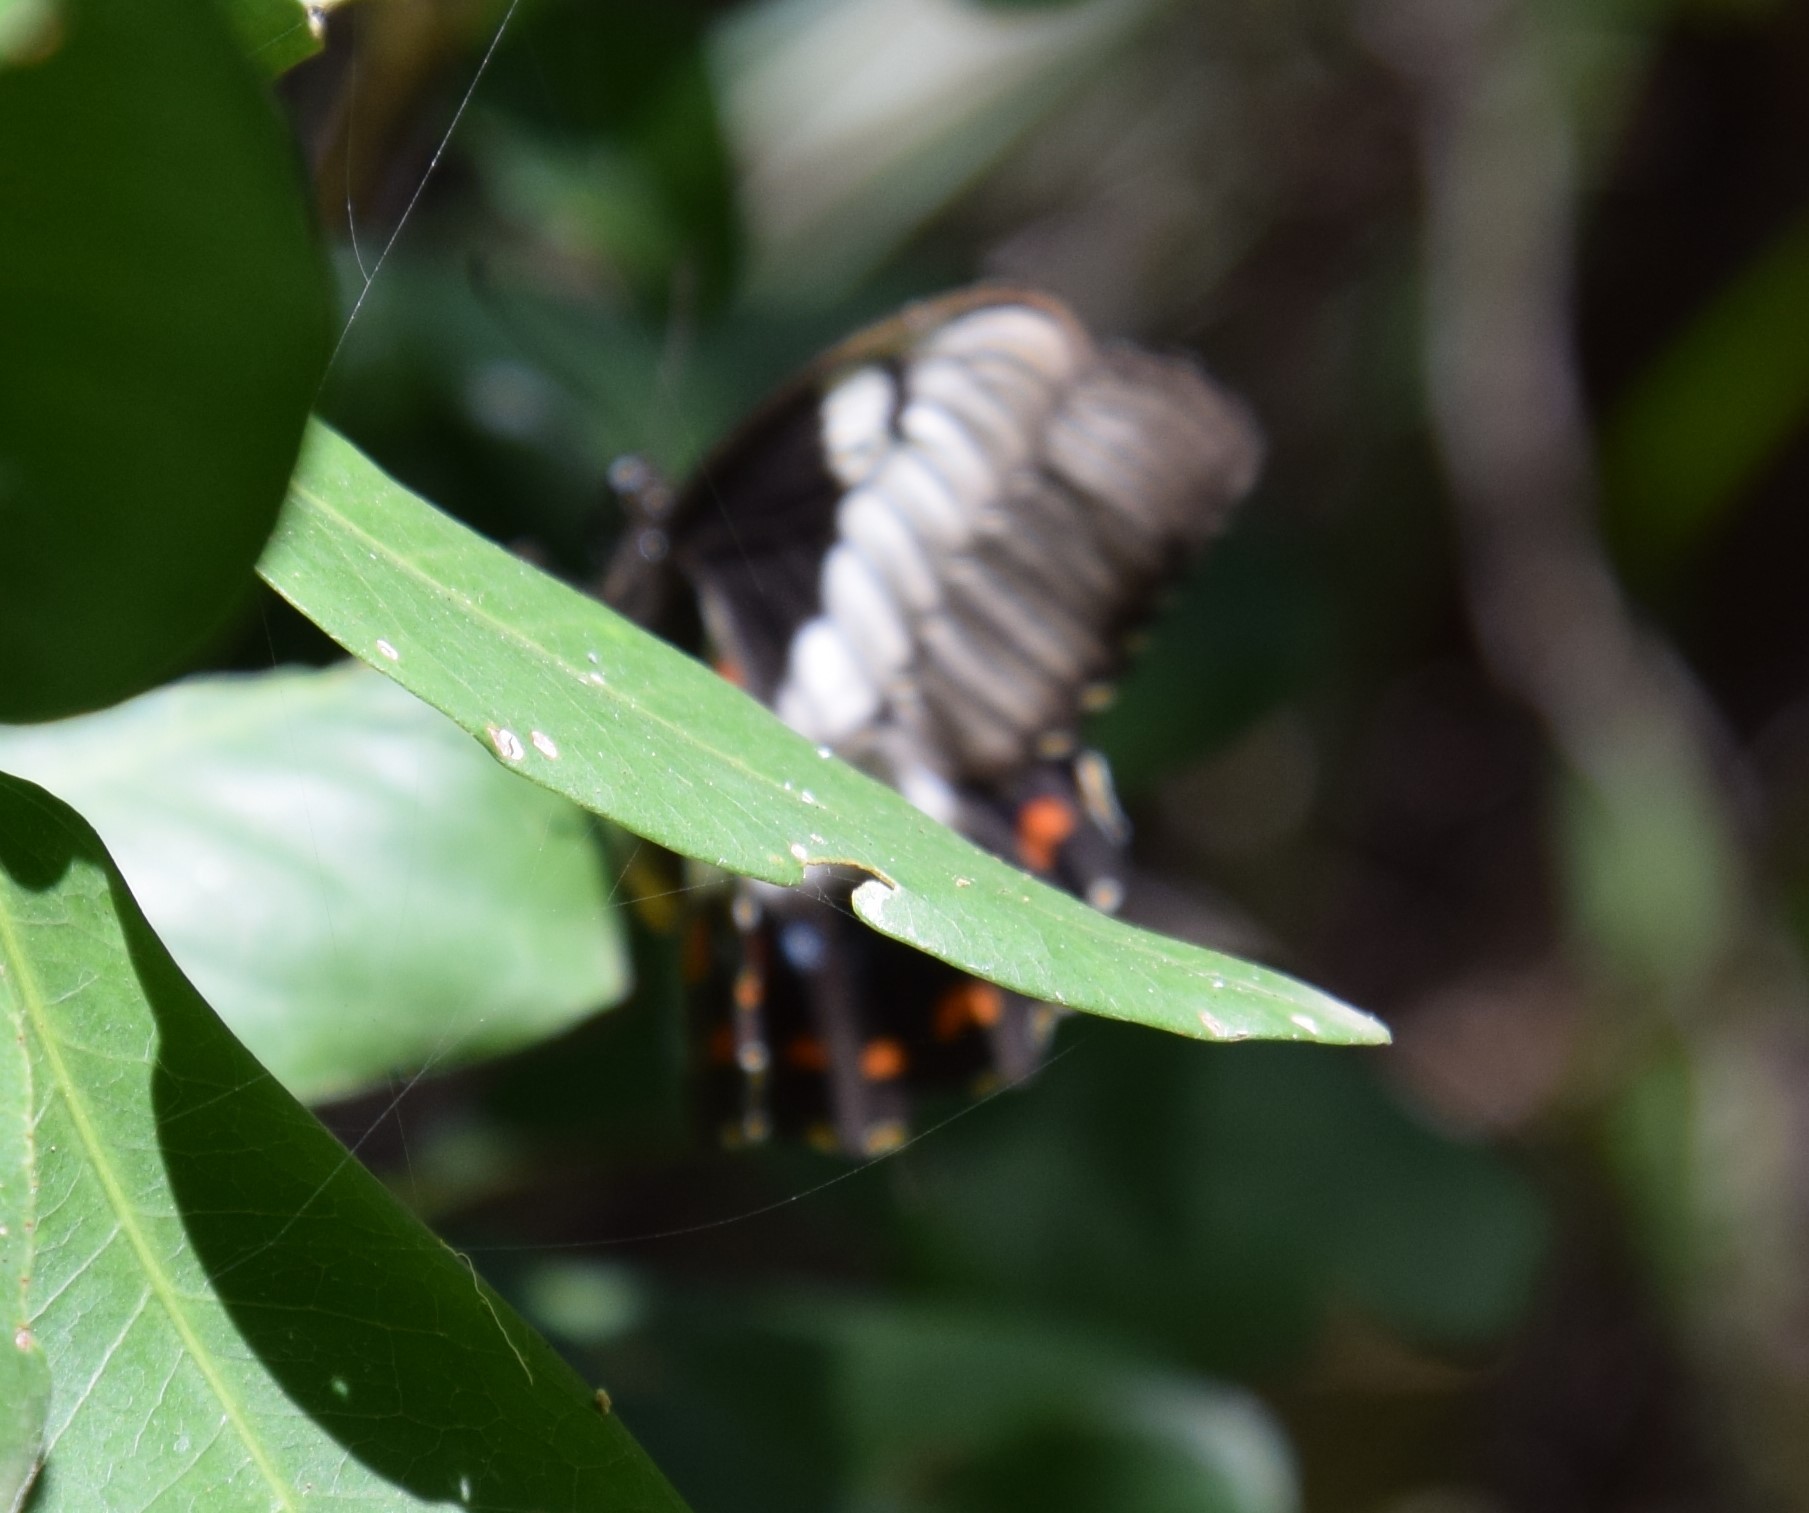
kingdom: Animalia
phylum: Arthropoda
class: Insecta
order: Lepidoptera
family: Papilionidae
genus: Papilio
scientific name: Papilio aegeus
